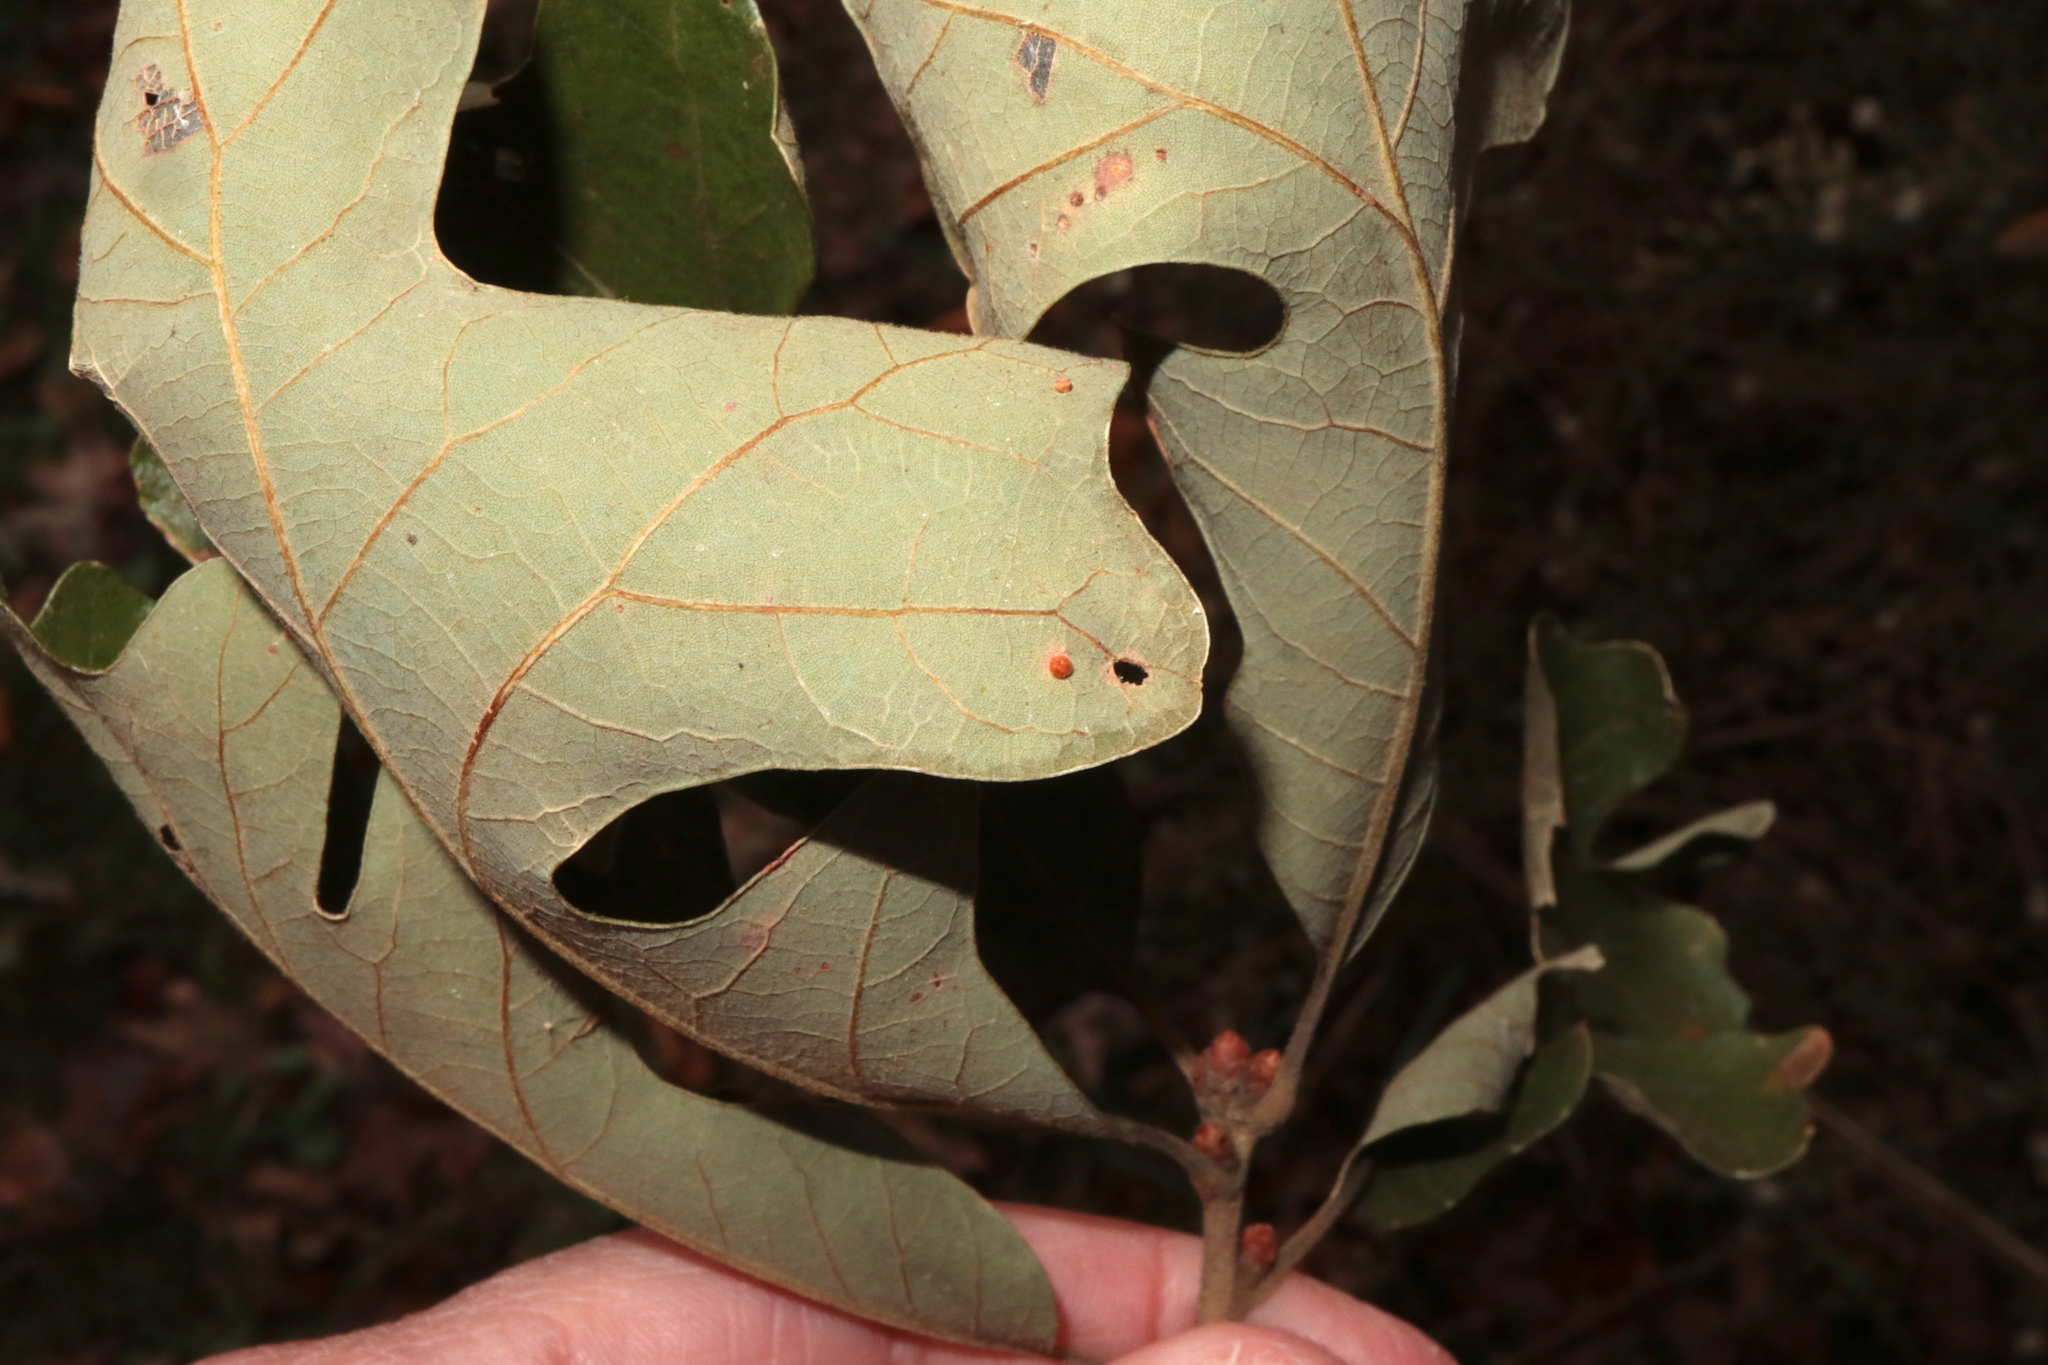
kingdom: Animalia
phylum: Arthropoda
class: Insecta
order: Hymenoptera
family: Cynipidae
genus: Neuroterus
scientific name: Neuroterus saltarius
